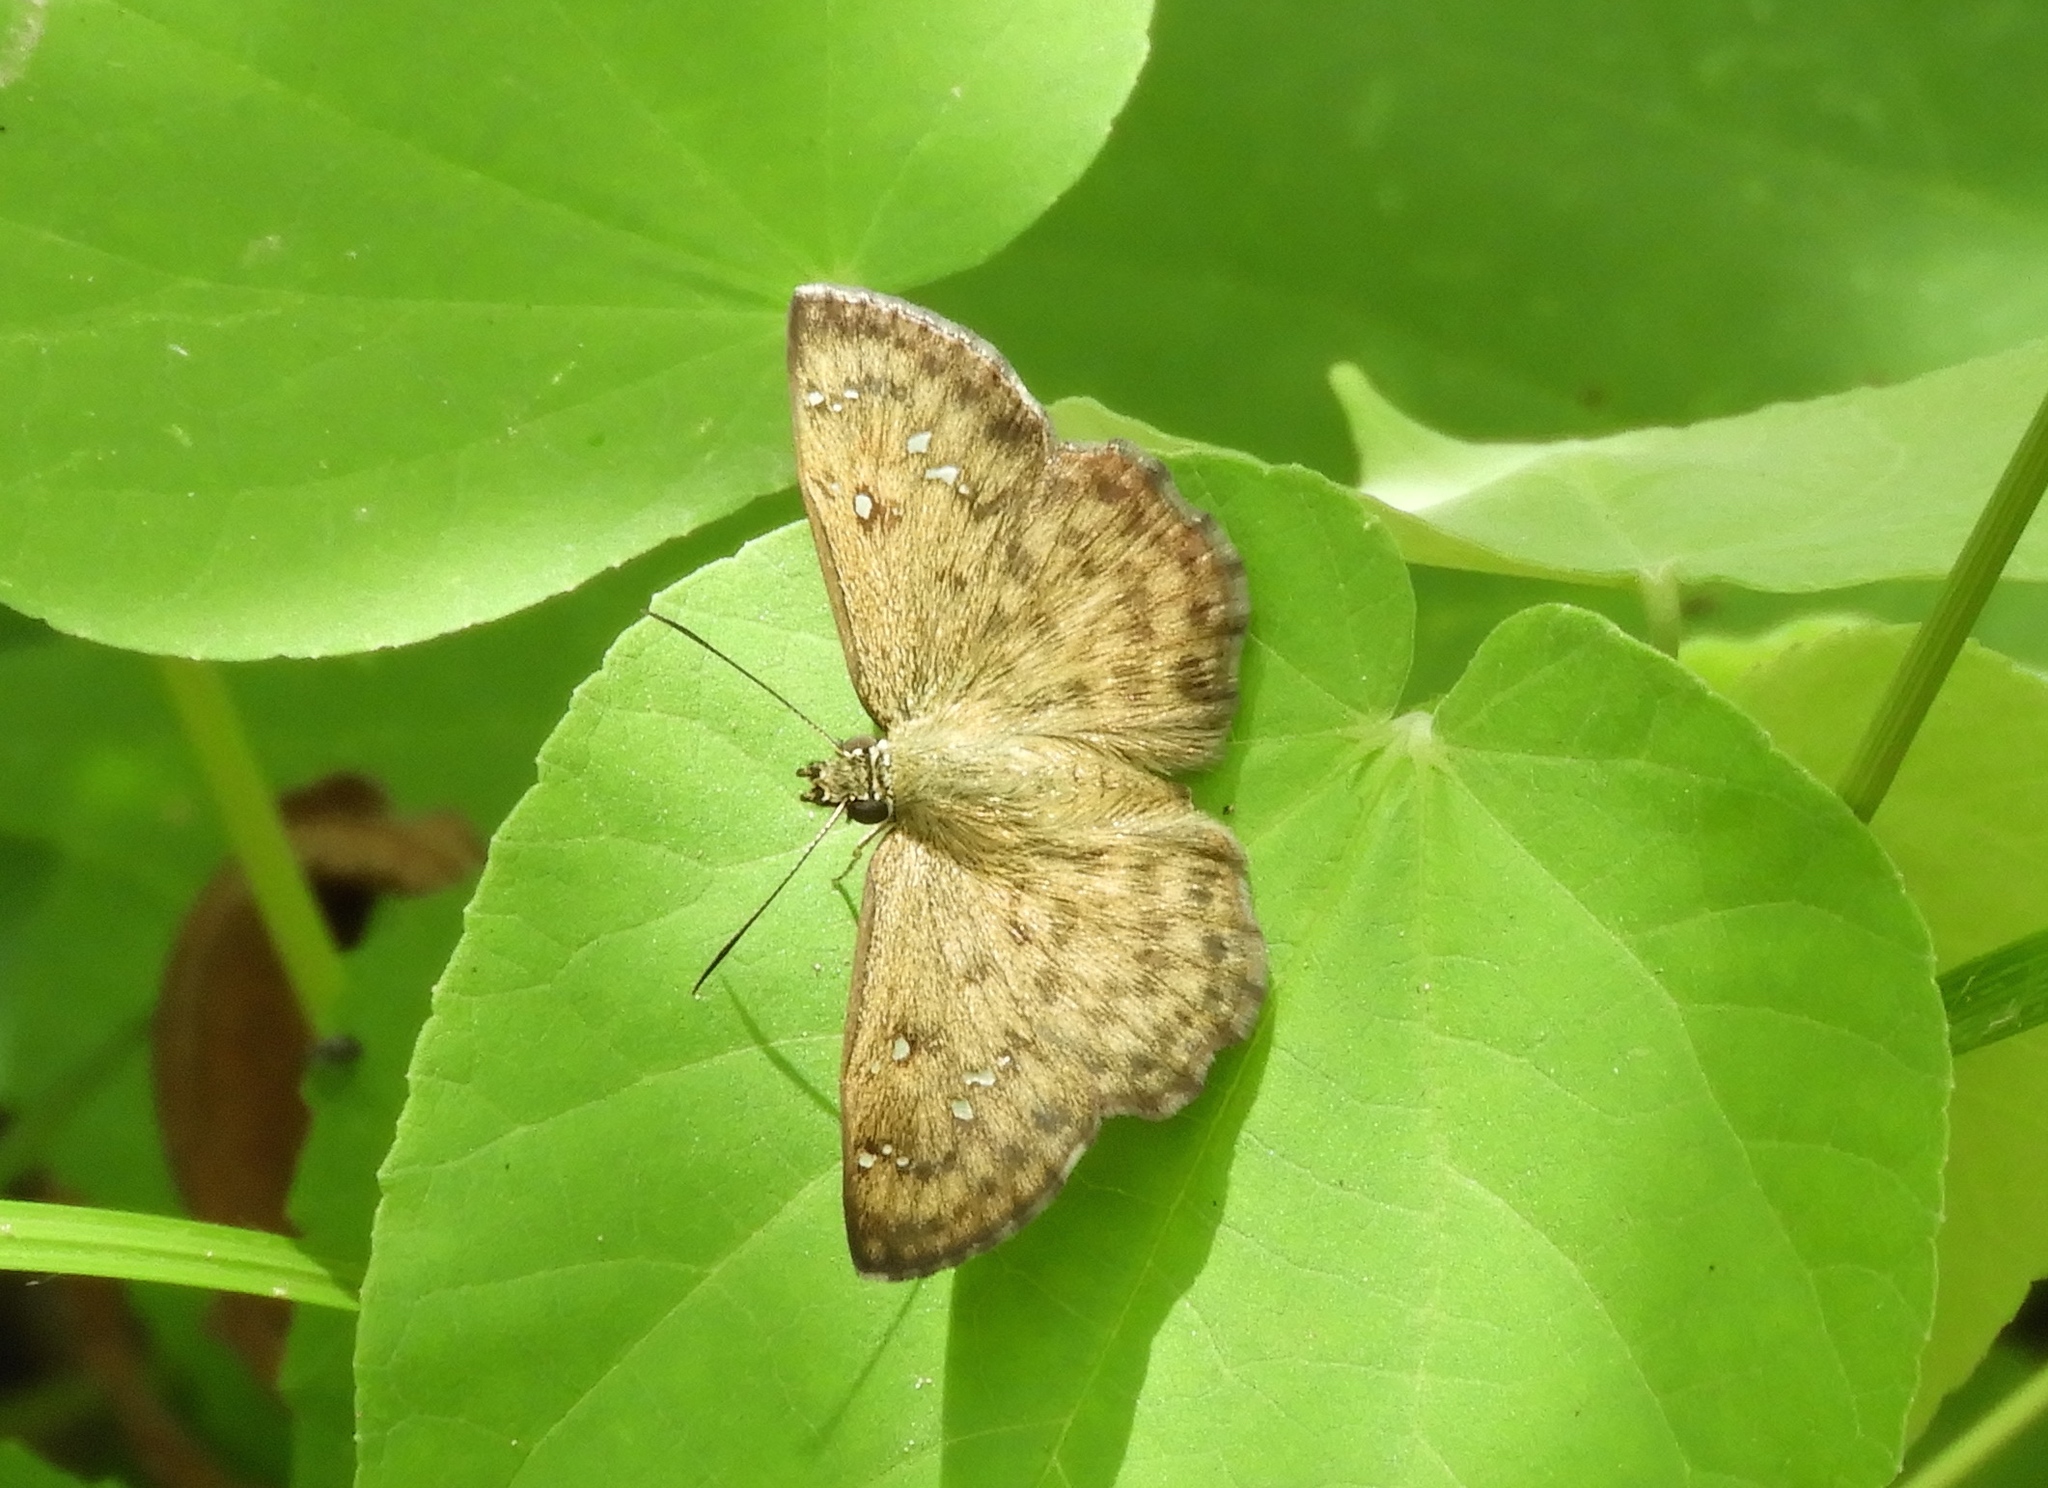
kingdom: Animalia
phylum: Arthropoda
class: Insecta
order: Lepidoptera
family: Hesperiidae
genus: Carrhenes
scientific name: Carrhenes fuscescens
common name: Tanned hoary-skipper
